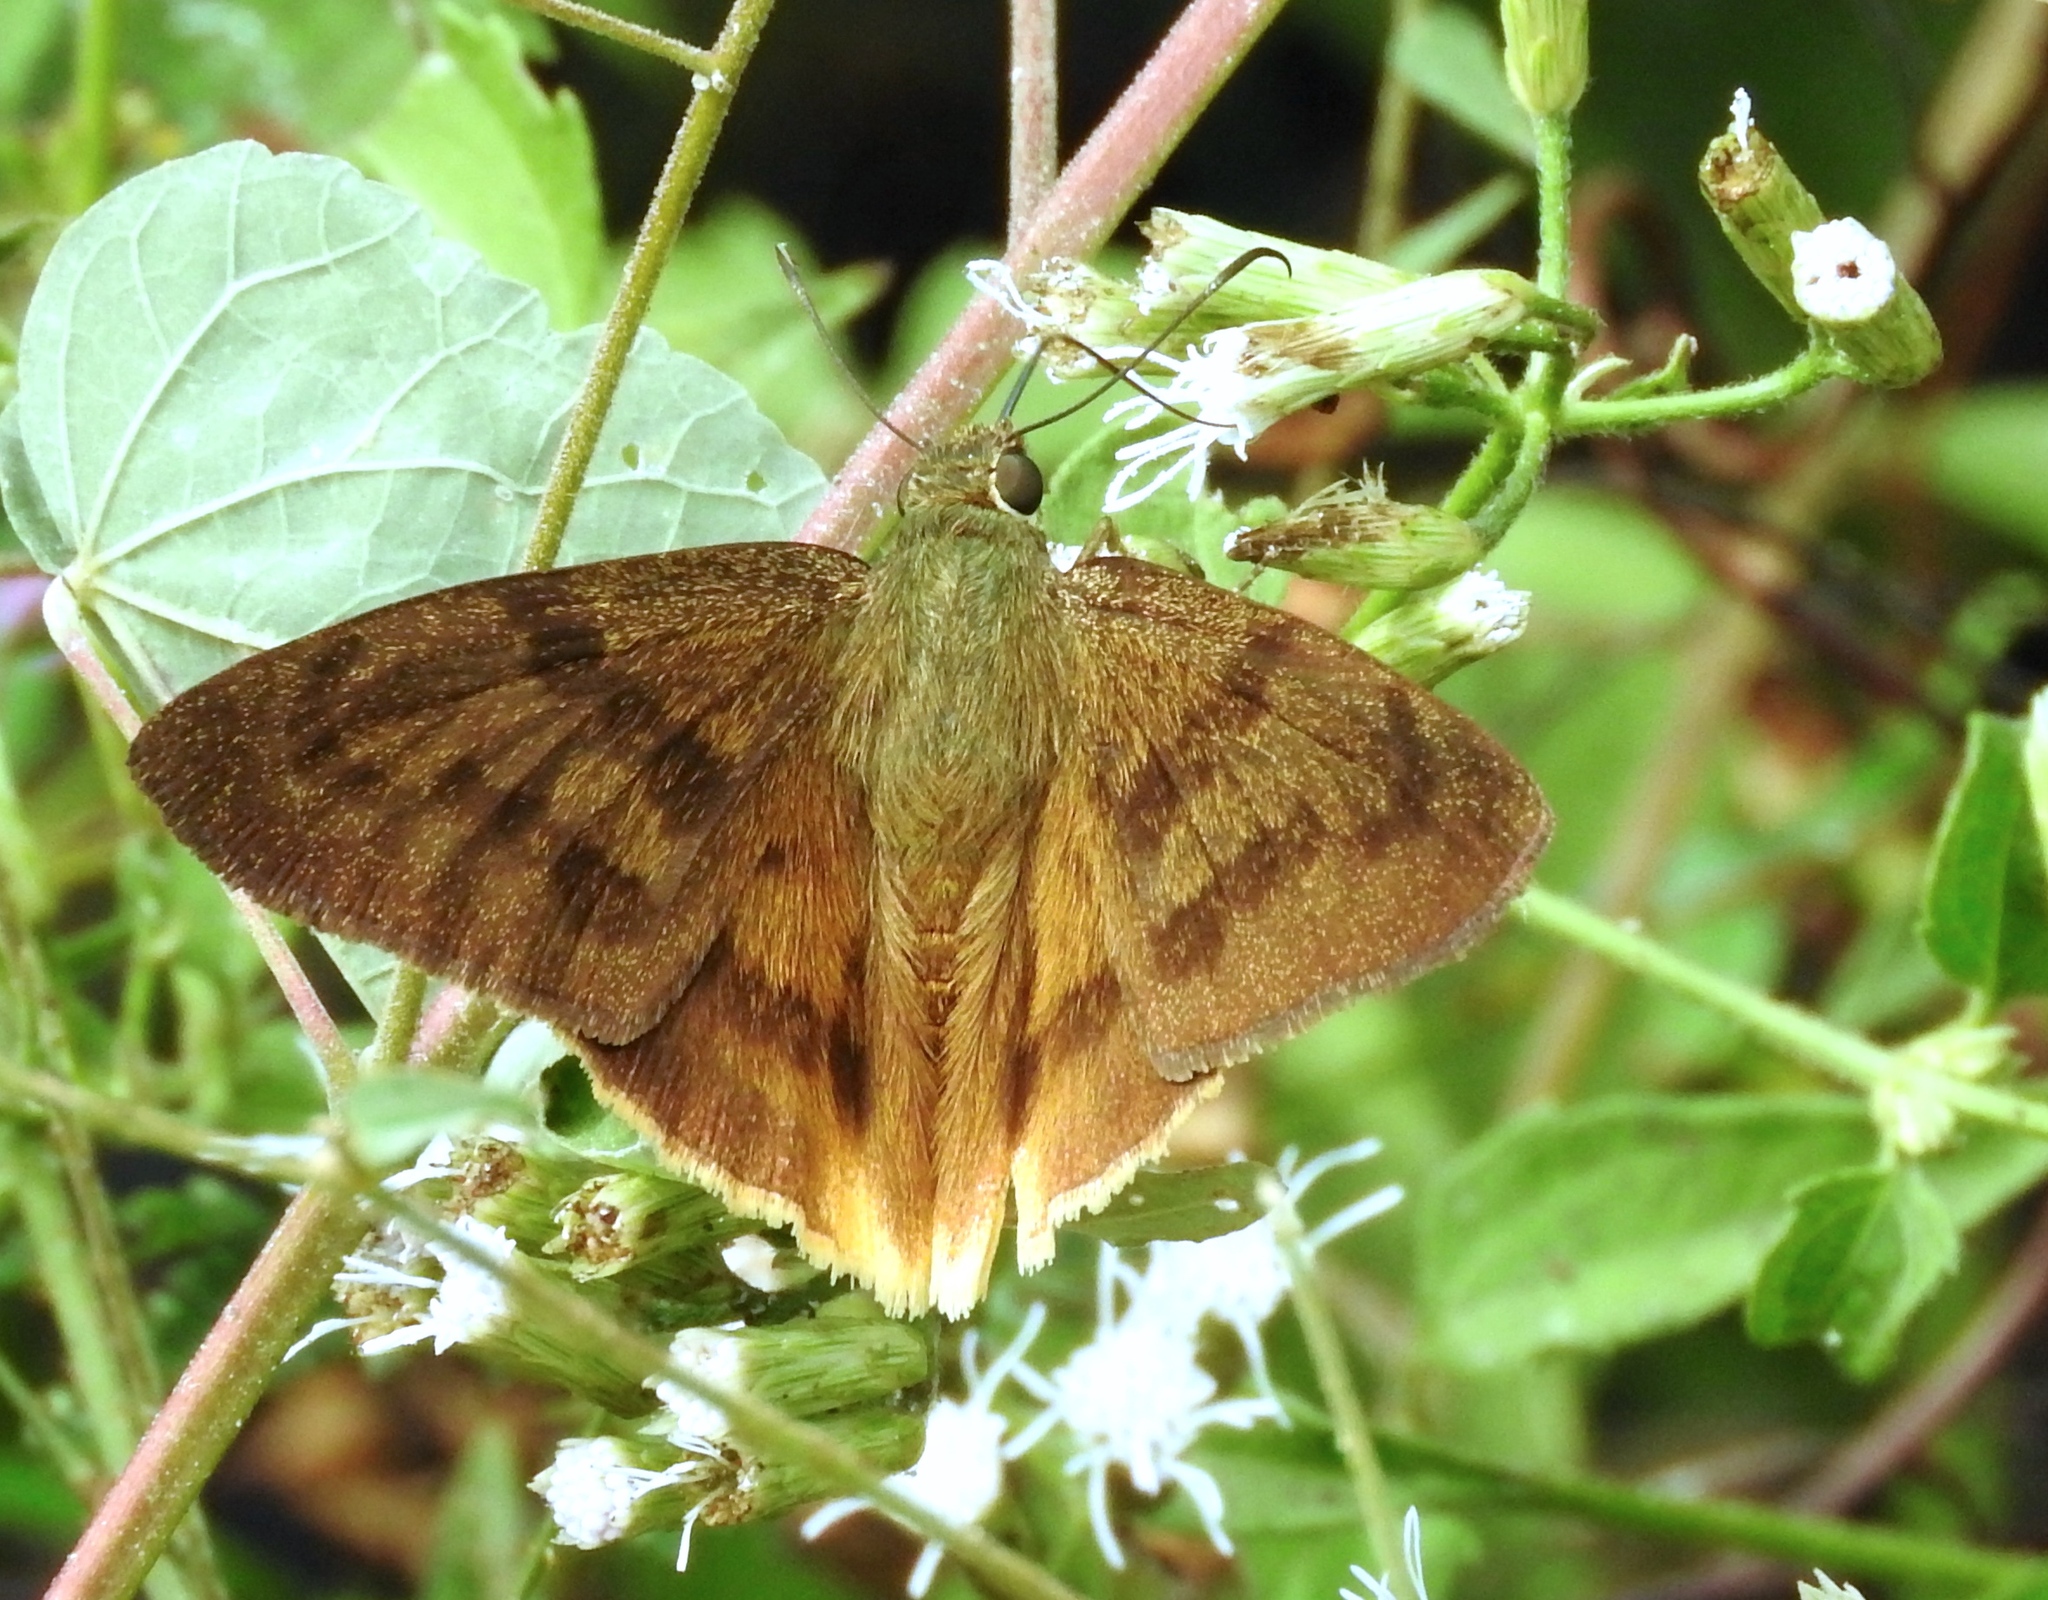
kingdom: Animalia
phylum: Arthropoda
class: Insecta
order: Lepidoptera
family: Hesperiidae
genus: Astraptes
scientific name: Astraptes anaphus
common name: Yellow-tipped flasher
